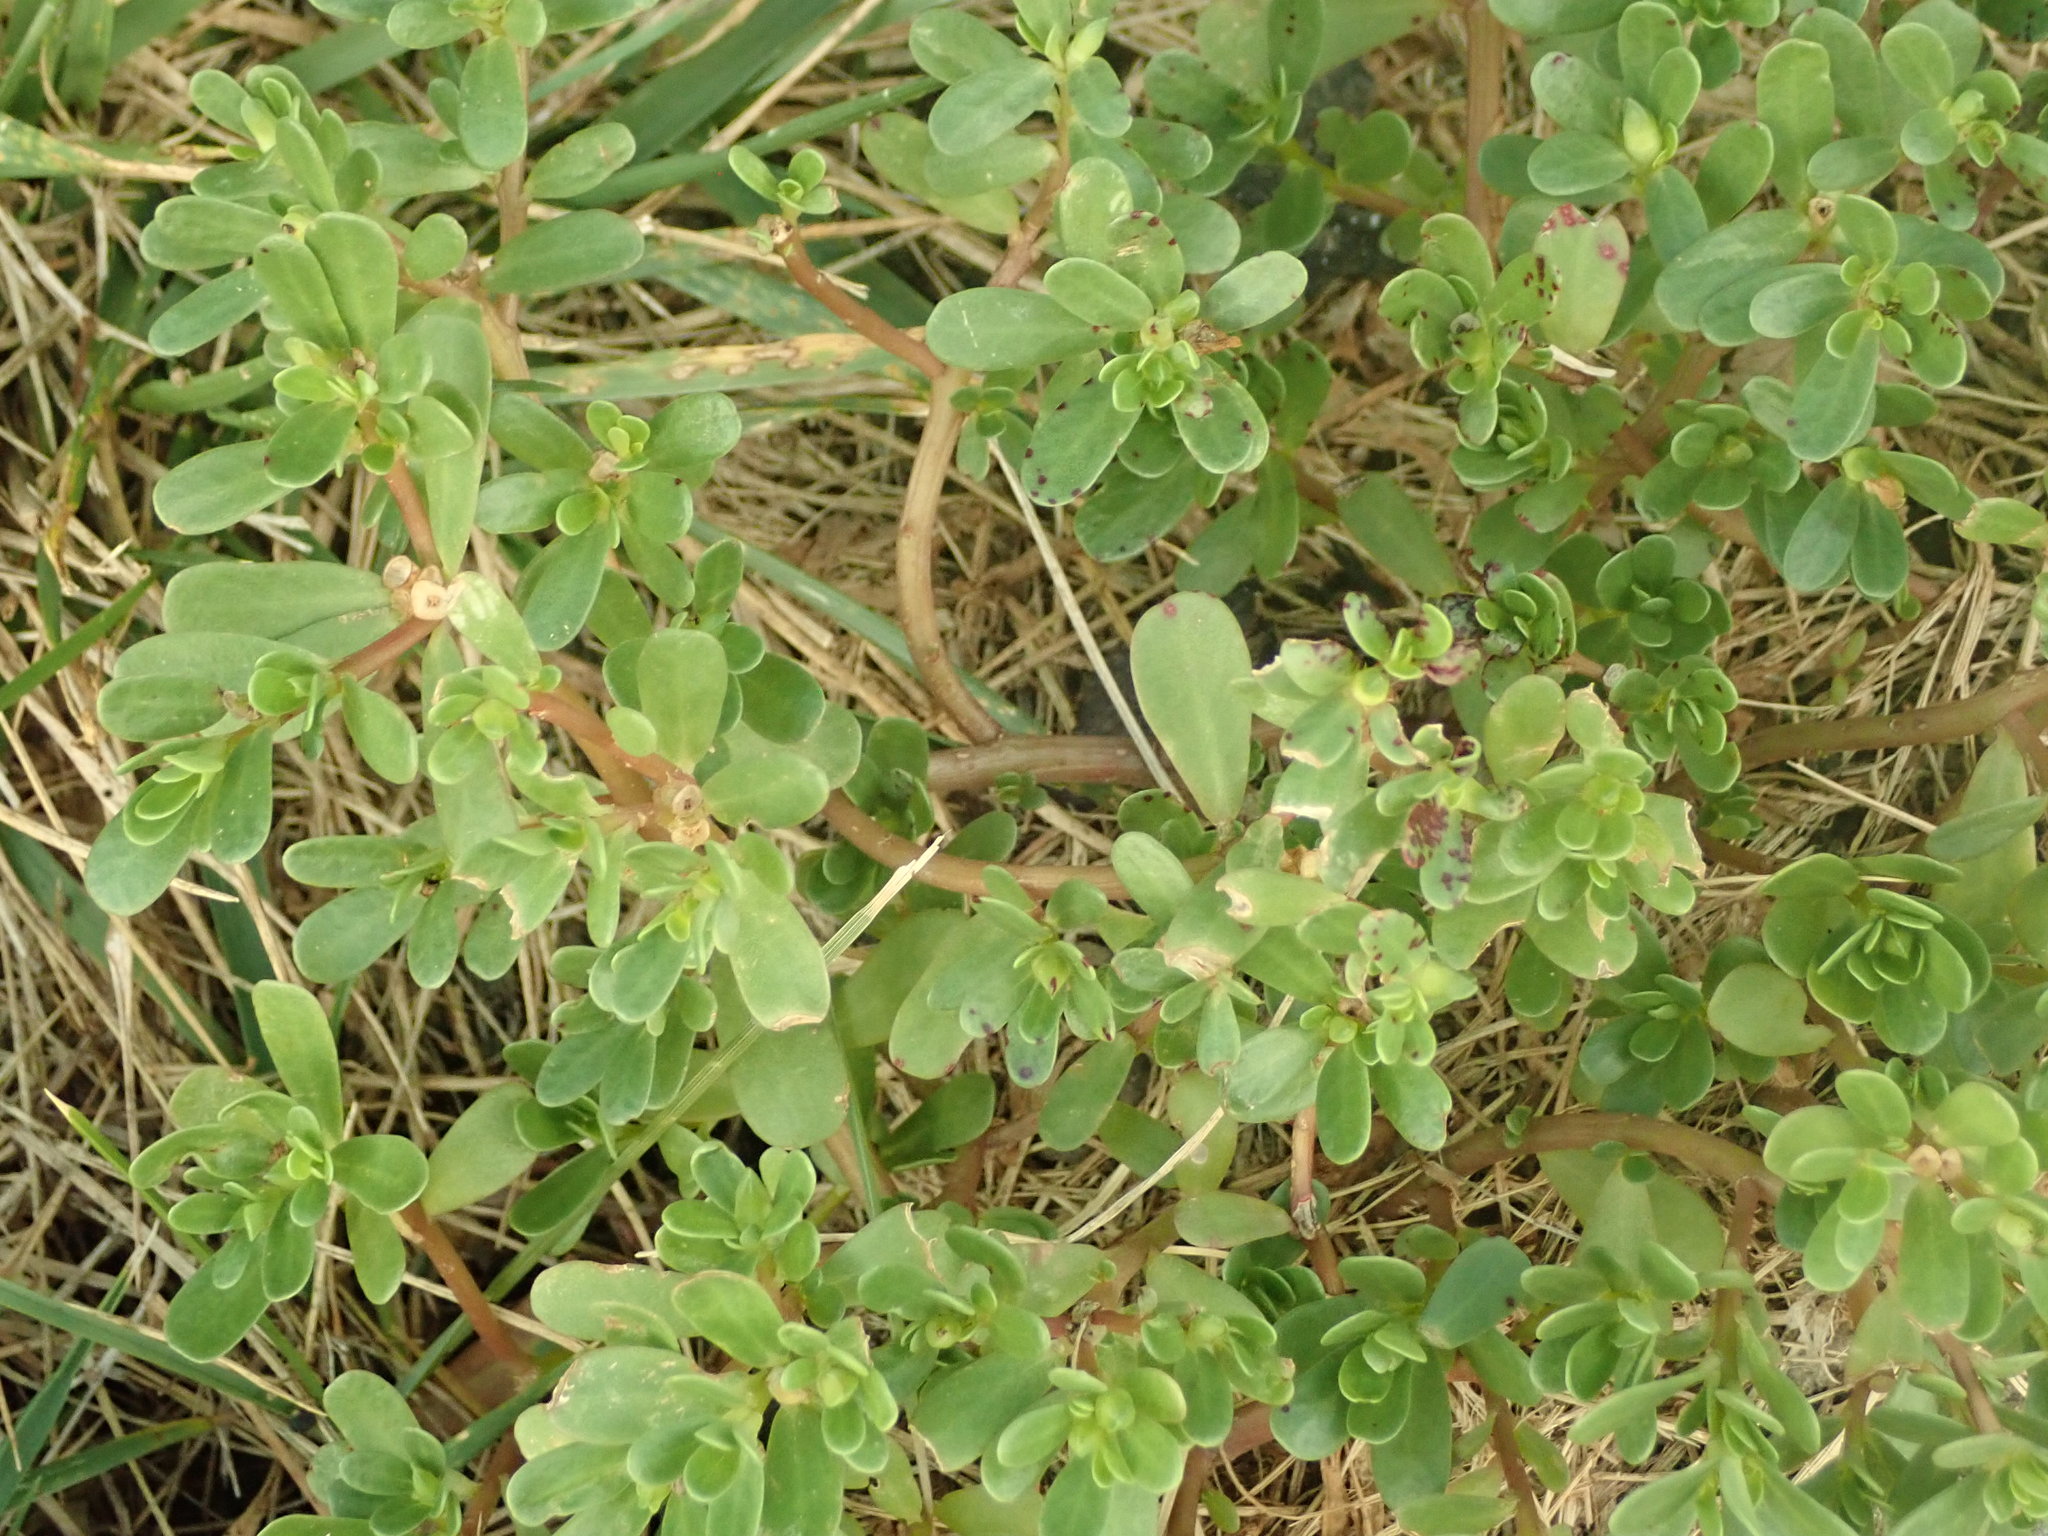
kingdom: Plantae
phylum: Tracheophyta
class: Magnoliopsida
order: Caryophyllales
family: Portulacaceae
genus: Portulaca
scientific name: Portulaca oleracea
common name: Common purslane
